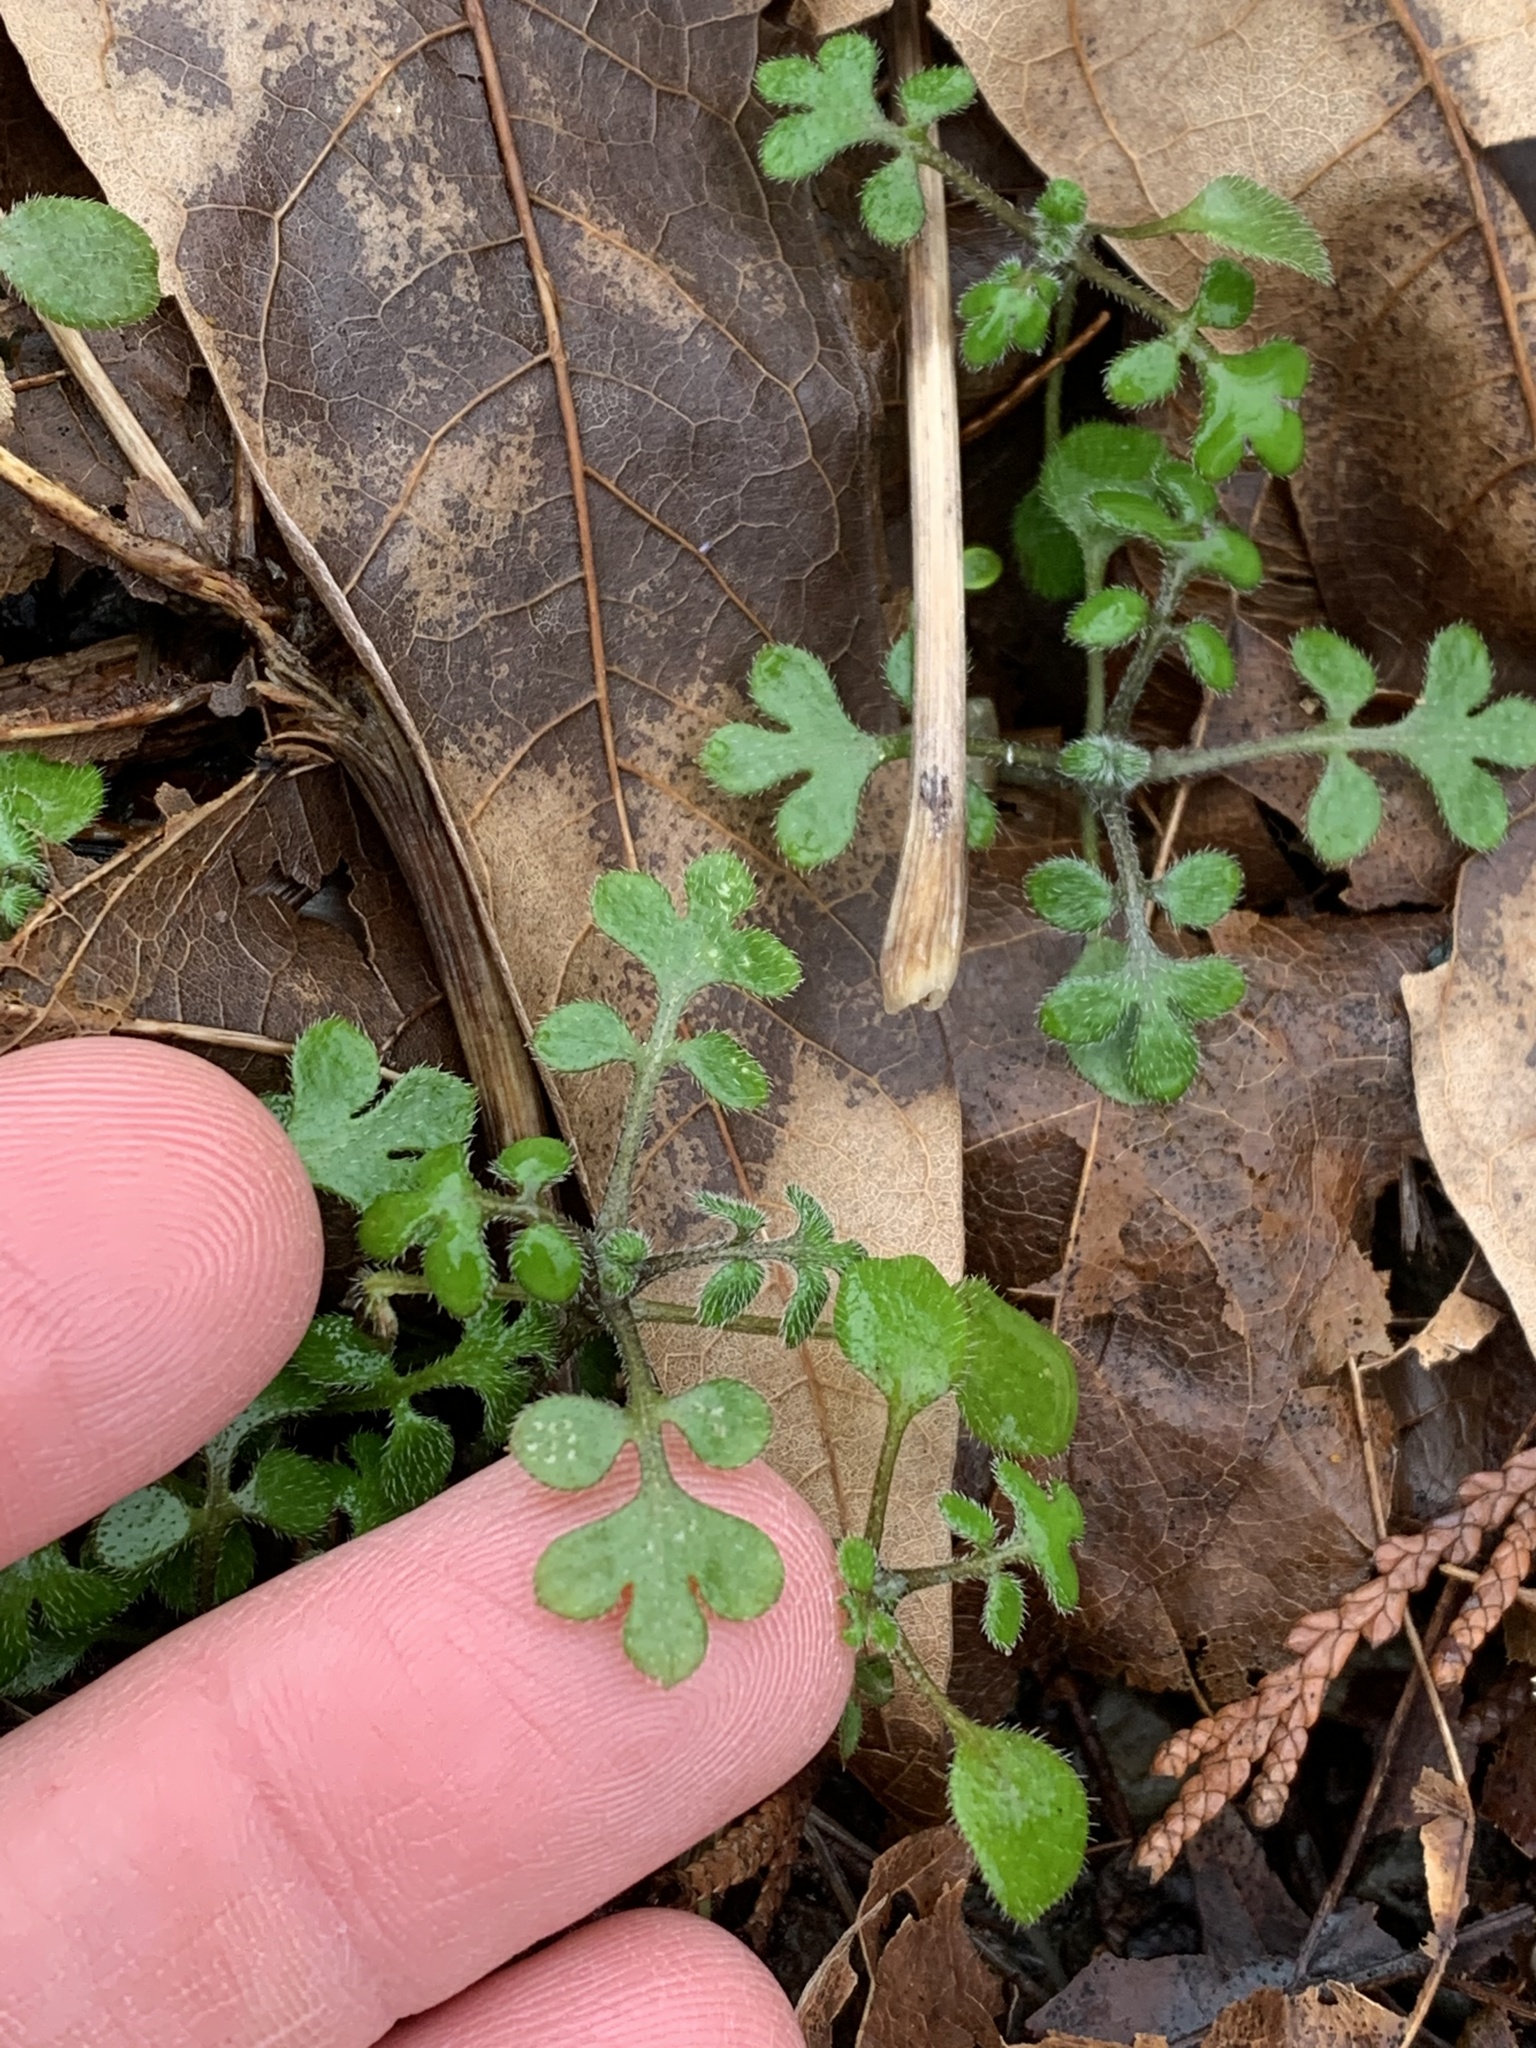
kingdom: Plantae
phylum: Tracheophyta
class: Magnoliopsida
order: Boraginales
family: Hydrophyllaceae
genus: Nemophila
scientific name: Nemophila parviflora
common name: Small-flowered baby-blue-eyes
